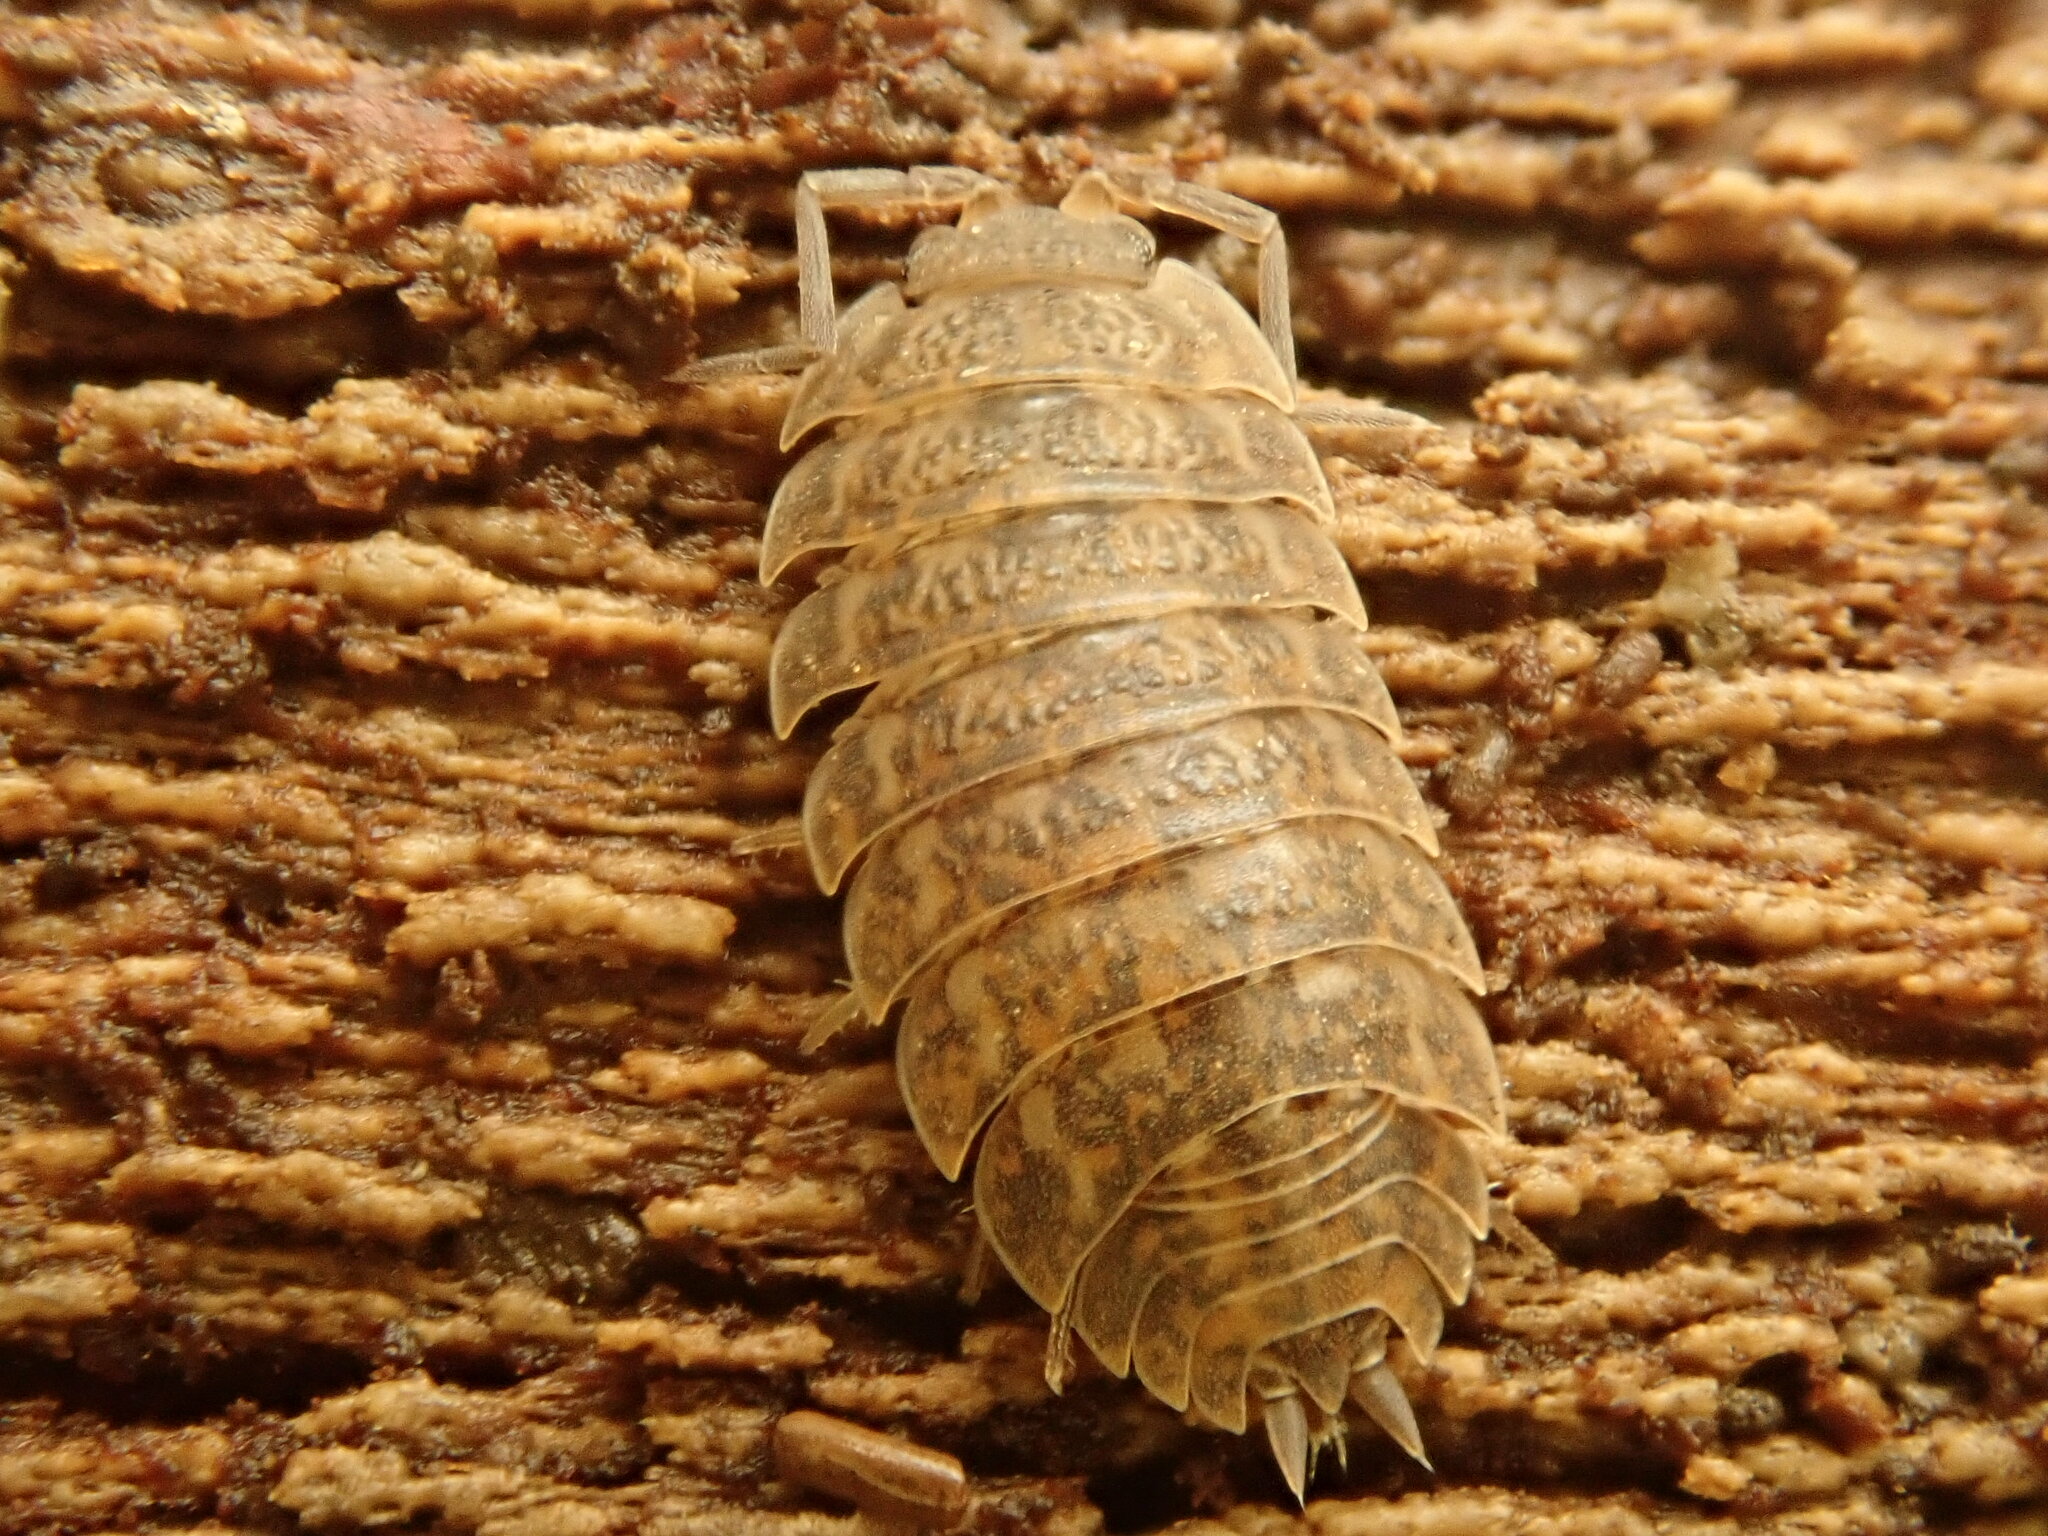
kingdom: Animalia
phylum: Arthropoda
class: Malacostraca
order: Isopoda
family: Trachelipodidae
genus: Trachelipus
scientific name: Trachelipus rathkii
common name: Isopod
